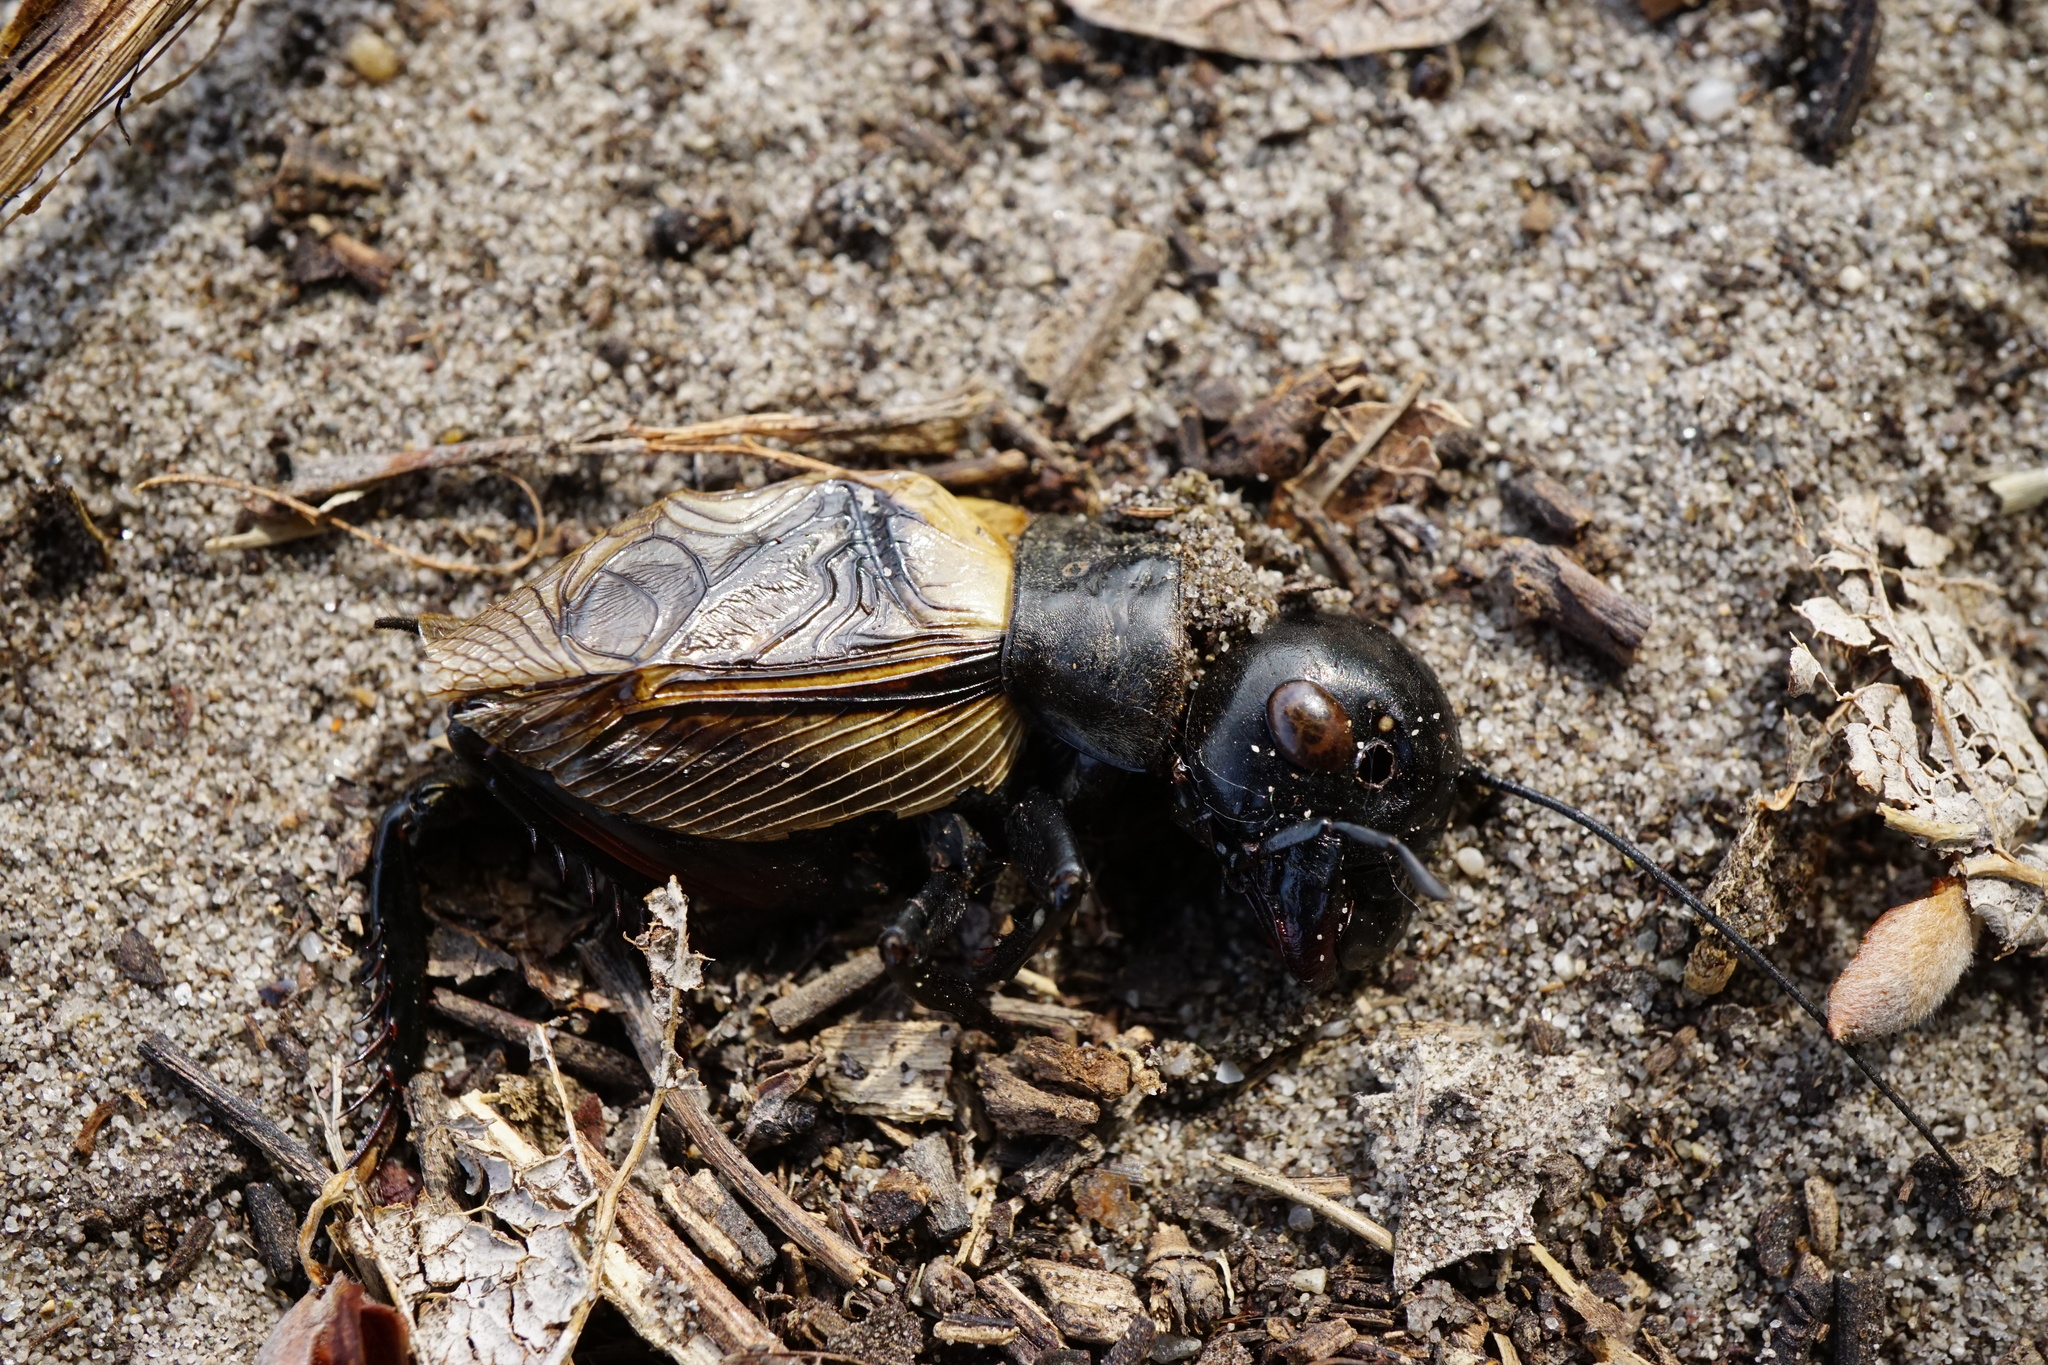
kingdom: Animalia
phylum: Arthropoda
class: Insecta
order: Orthoptera
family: Gryllidae
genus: Gryllus
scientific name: Gryllus campestris
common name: Field cricket
